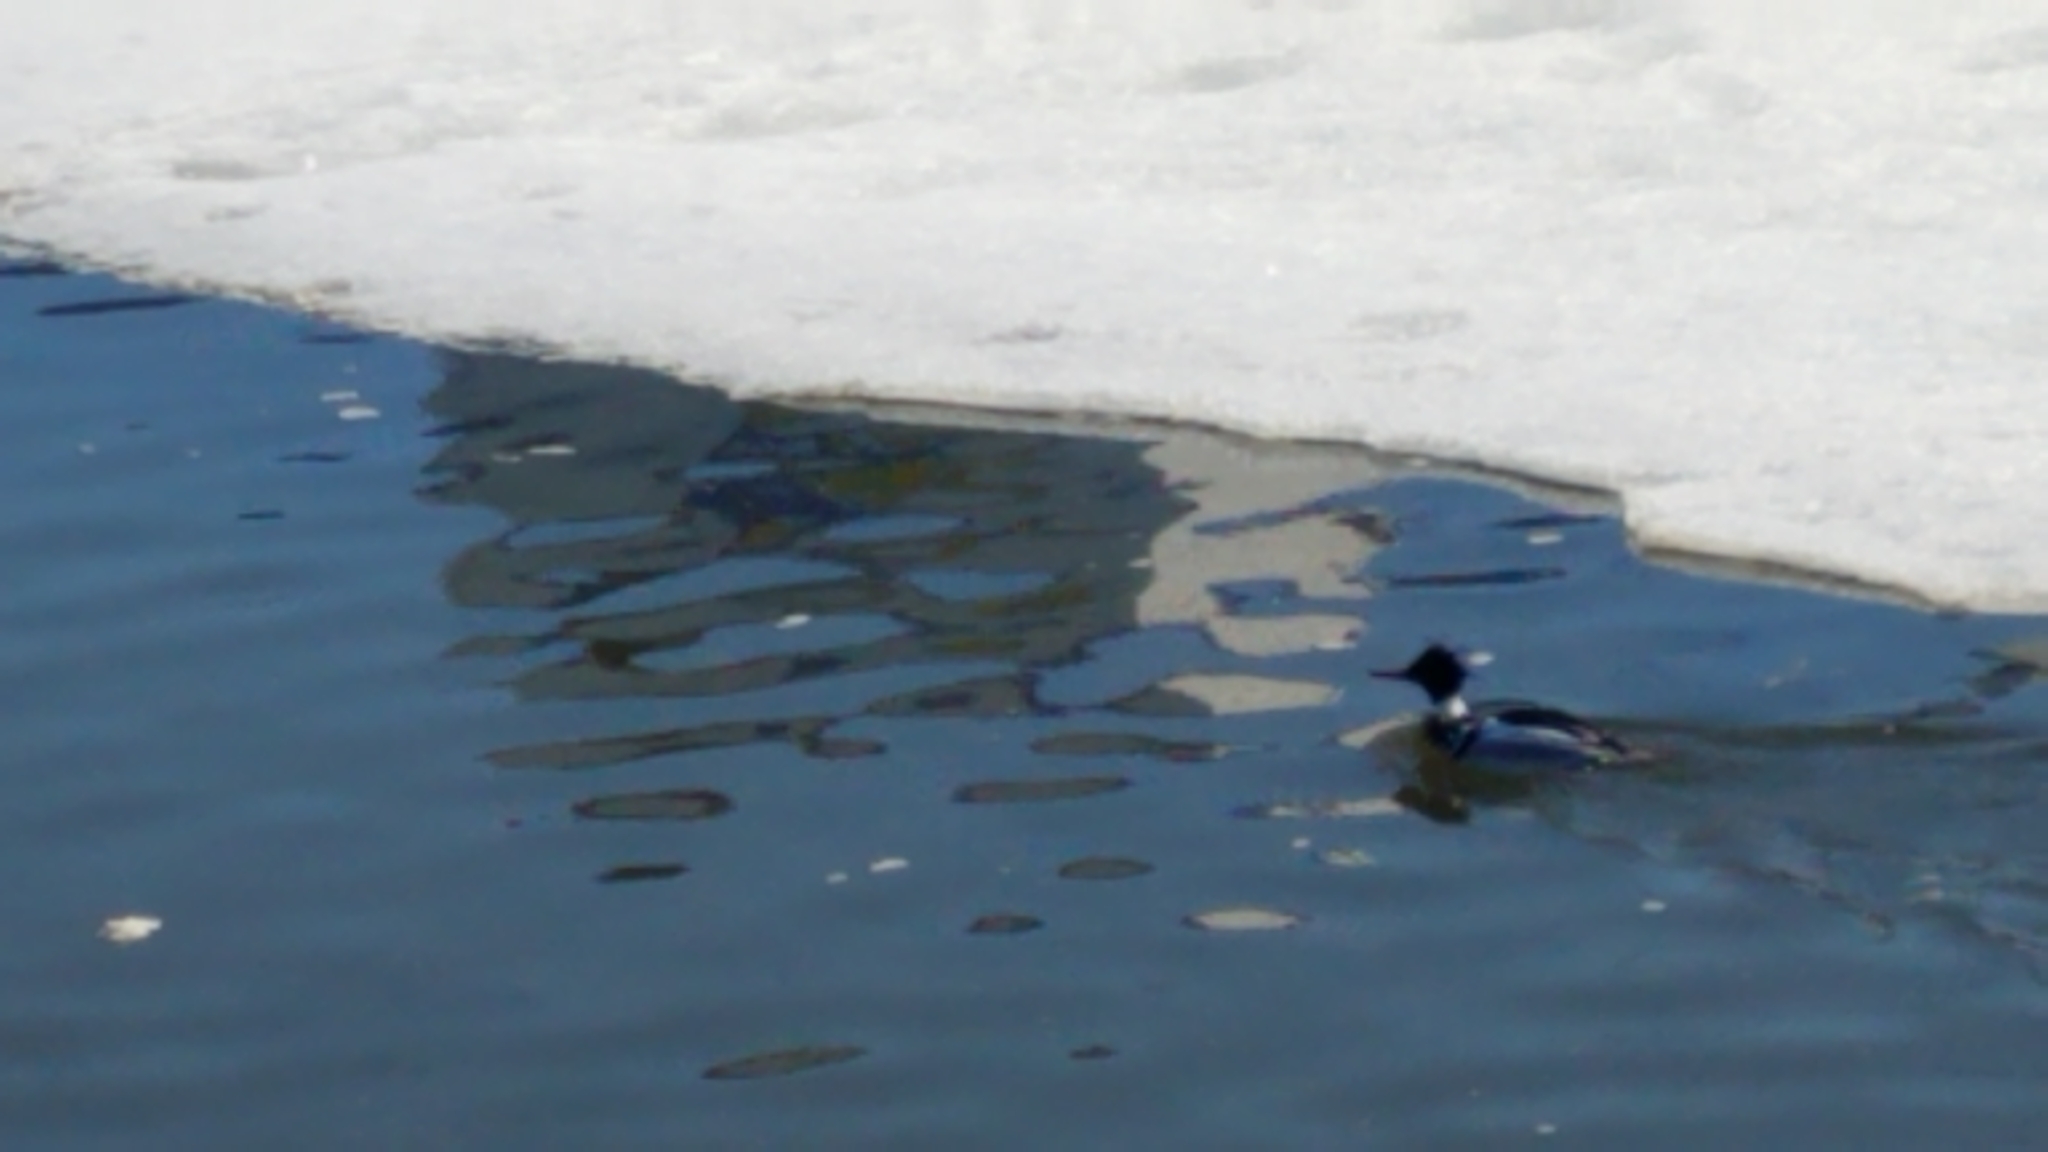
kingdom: Animalia
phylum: Chordata
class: Aves
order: Anseriformes
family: Anatidae
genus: Mergus
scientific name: Mergus serrator
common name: Red-breasted merganser
